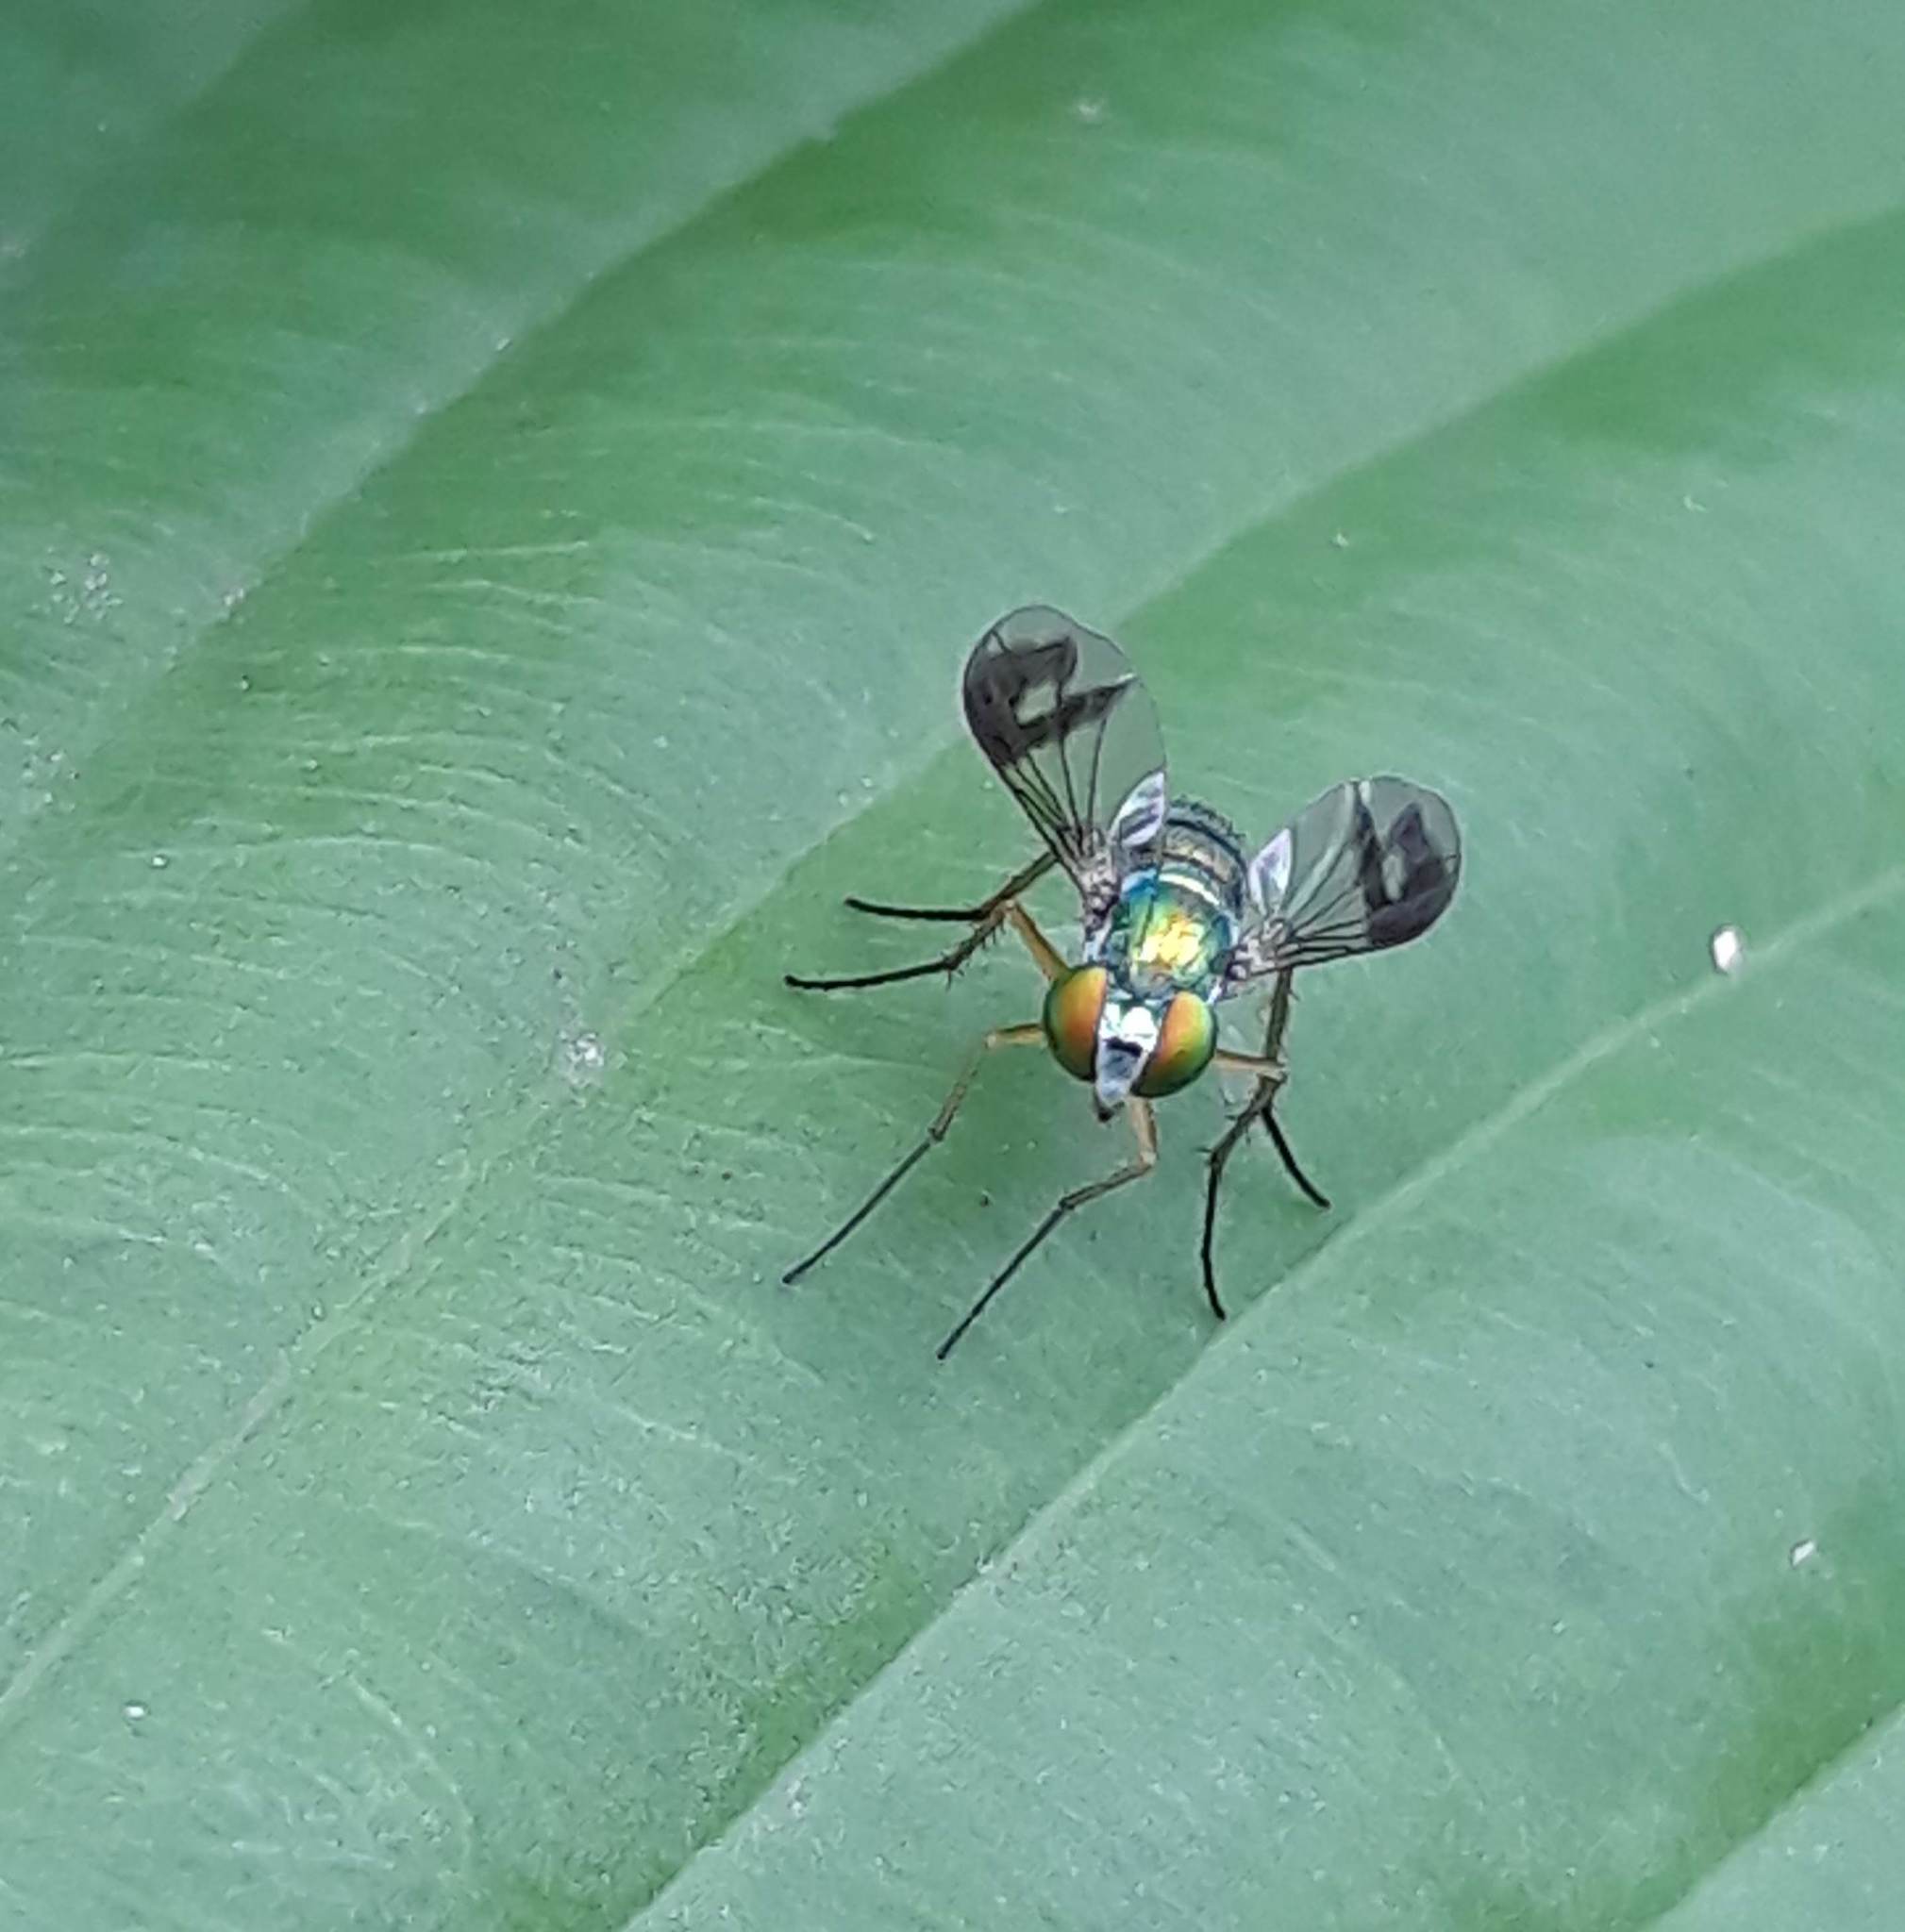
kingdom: Animalia
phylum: Arthropoda
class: Insecta
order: Diptera
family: Dolichopodidae
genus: Condylostylus
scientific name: Condylostylus
